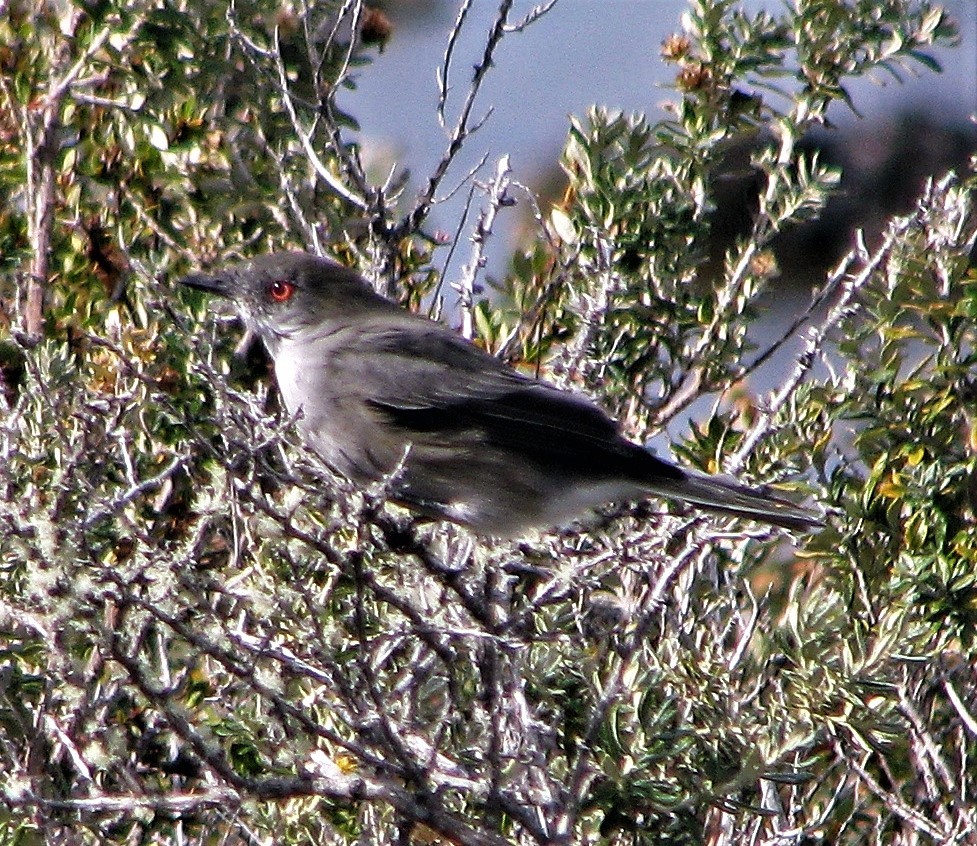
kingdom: Animalia
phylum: Chordata
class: Aves
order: Passeriformes
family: Tyrannidae
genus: Xolmis
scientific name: Xolmis pyrope
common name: Fire-eyed diucon
